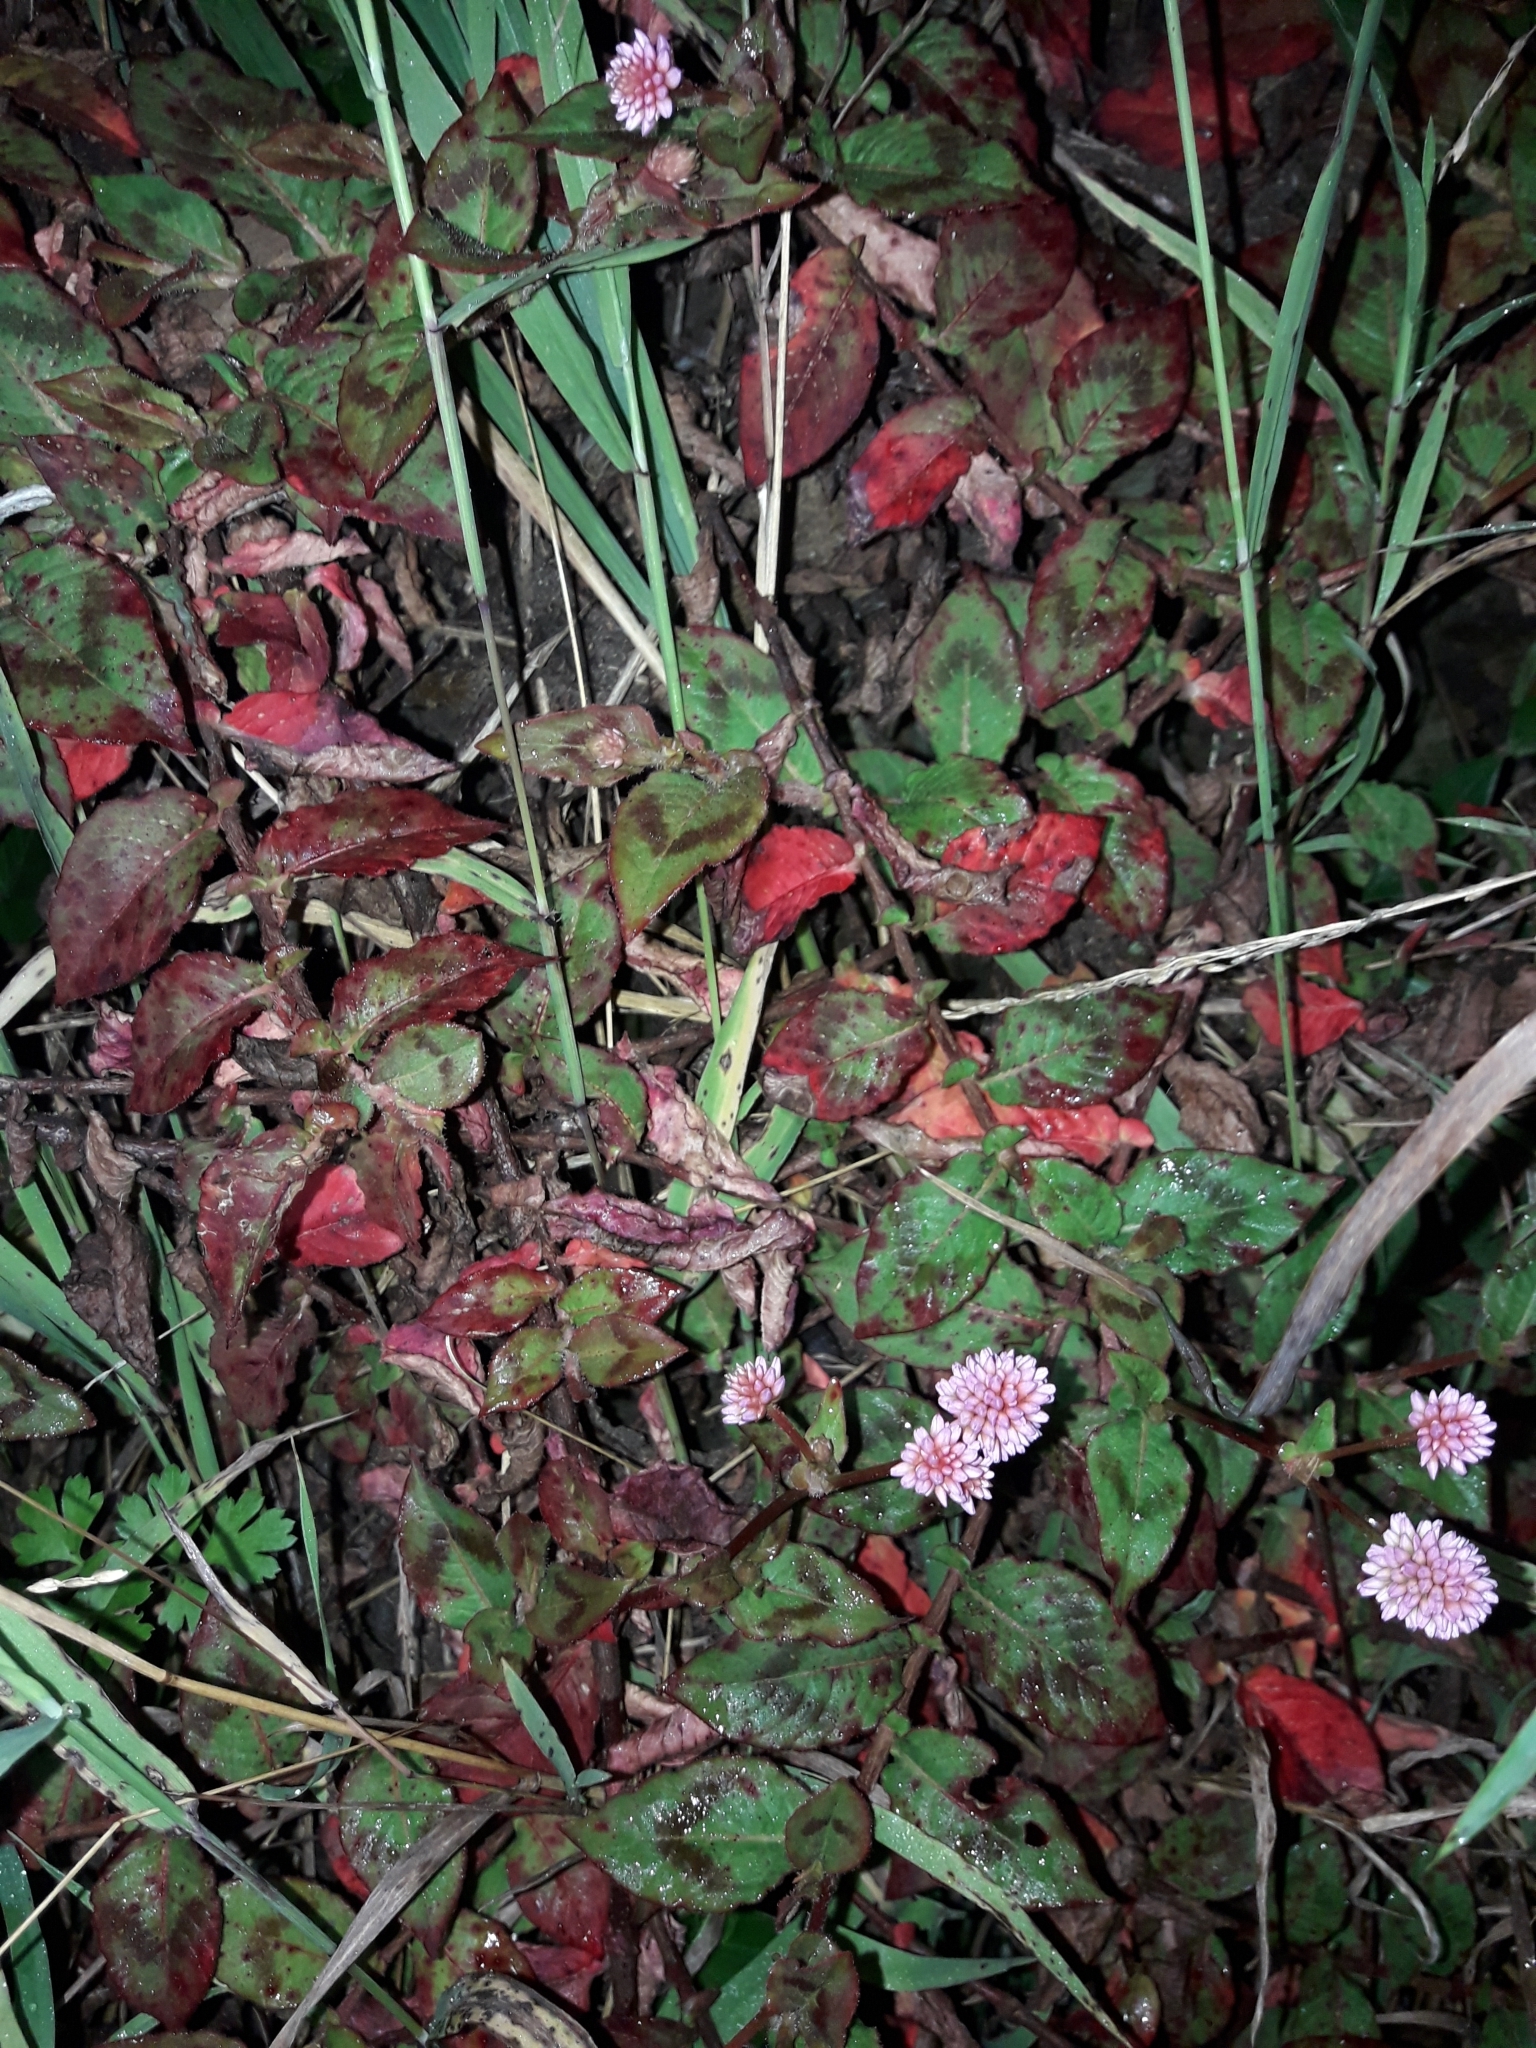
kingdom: Plantae
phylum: Tracheophyta
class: Magnoliopsida
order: Caryophyllales
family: Polygonaceae
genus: Persicaria
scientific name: Persicaria capitata
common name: Pinkhead smartweed
